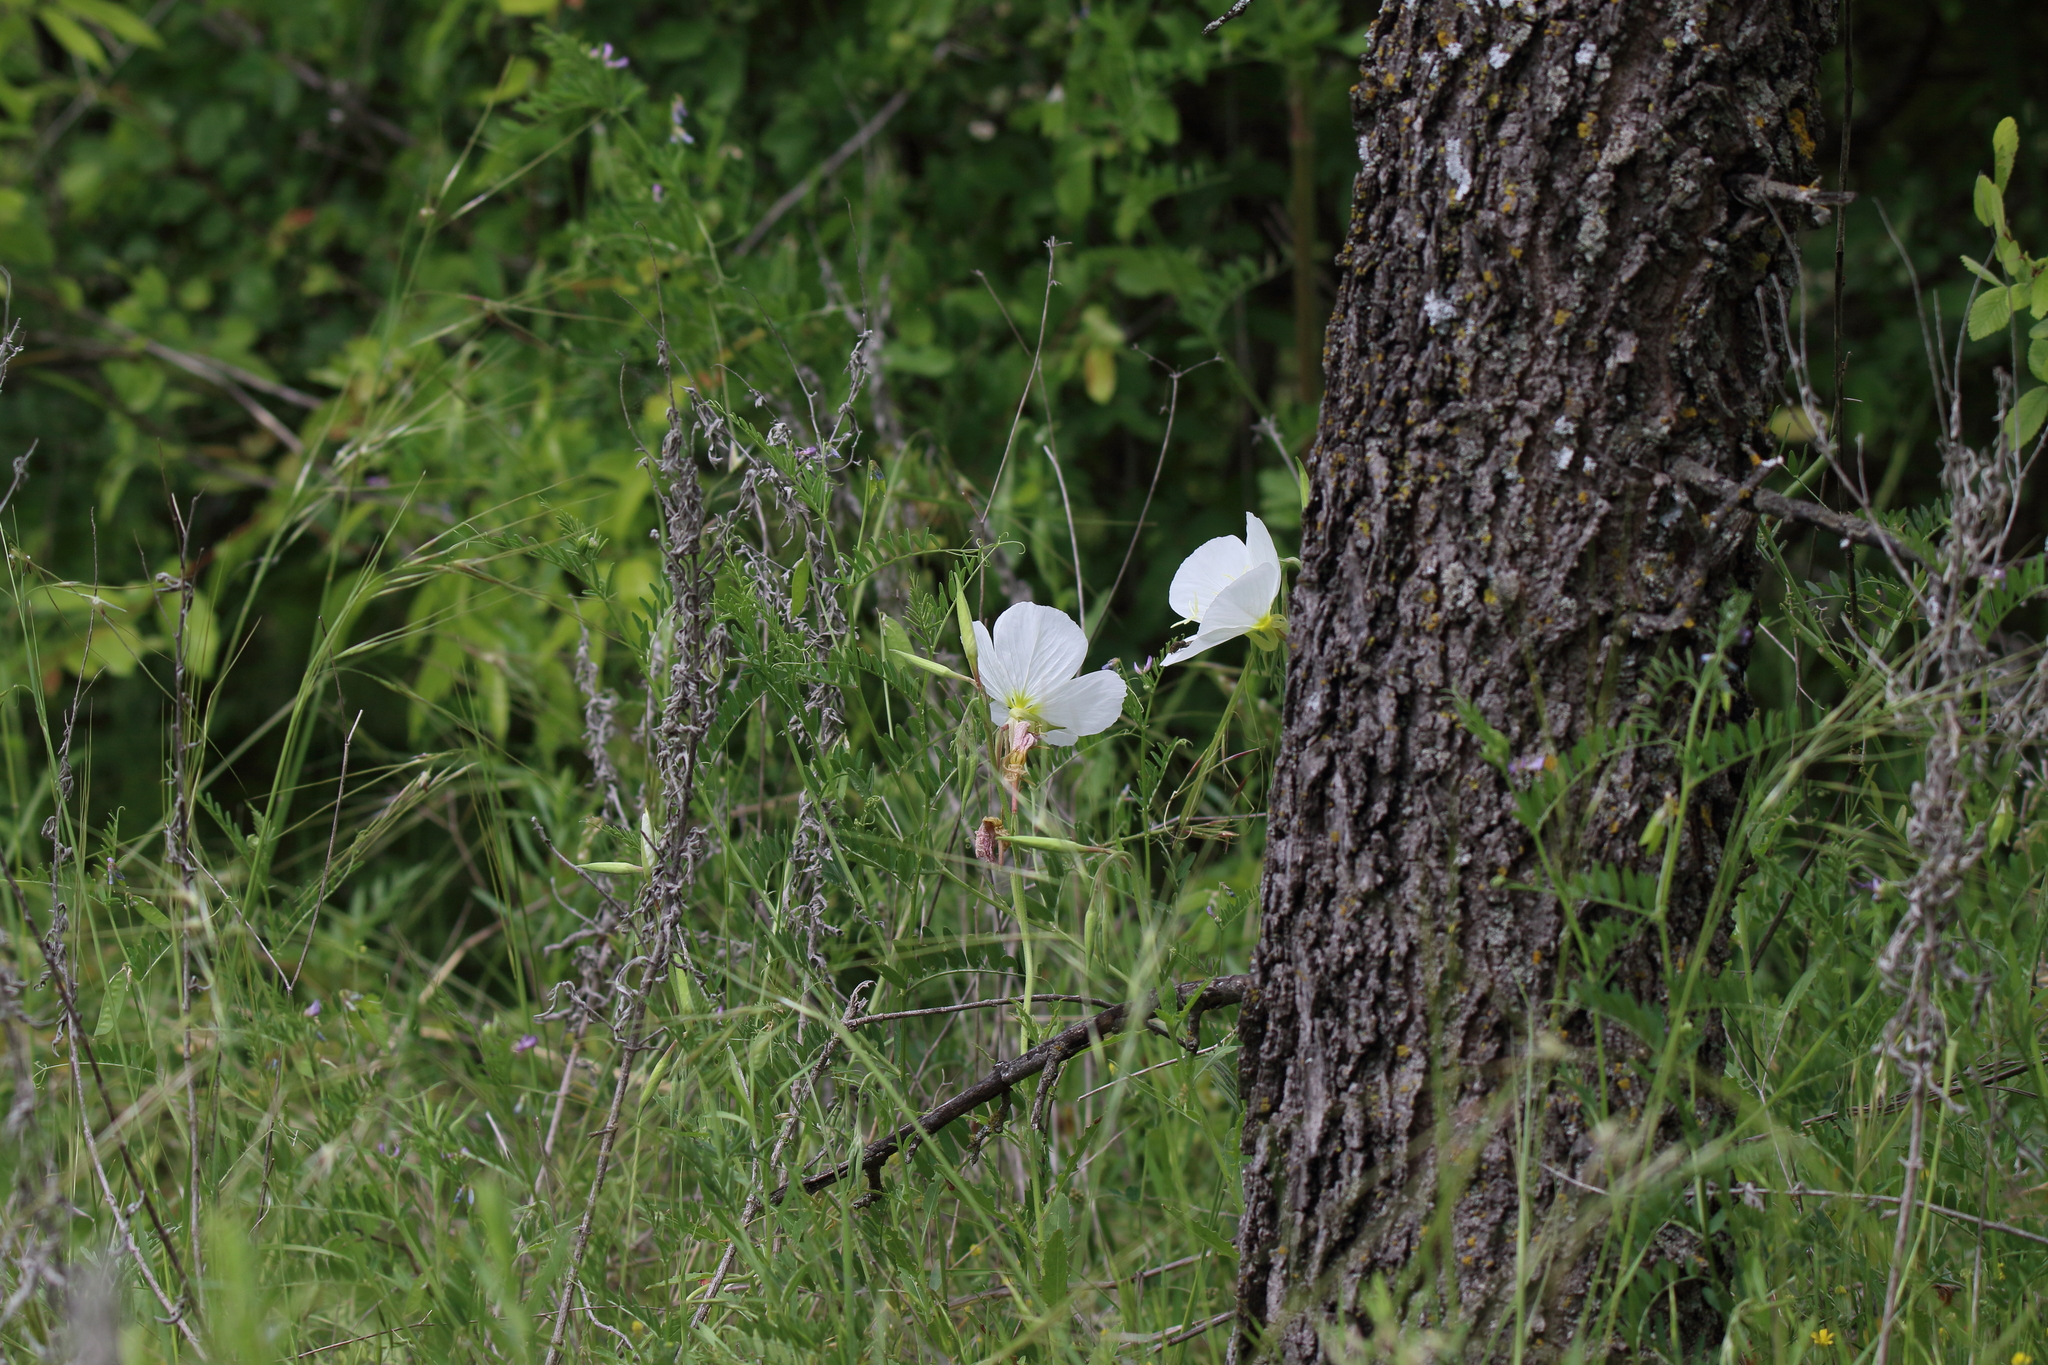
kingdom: Plantae
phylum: Tracheophyta
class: Magnoliopsida
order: Myrtales
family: Onagraceae
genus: Oenothera
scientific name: Oenothera speciosa
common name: White evening-primrose
